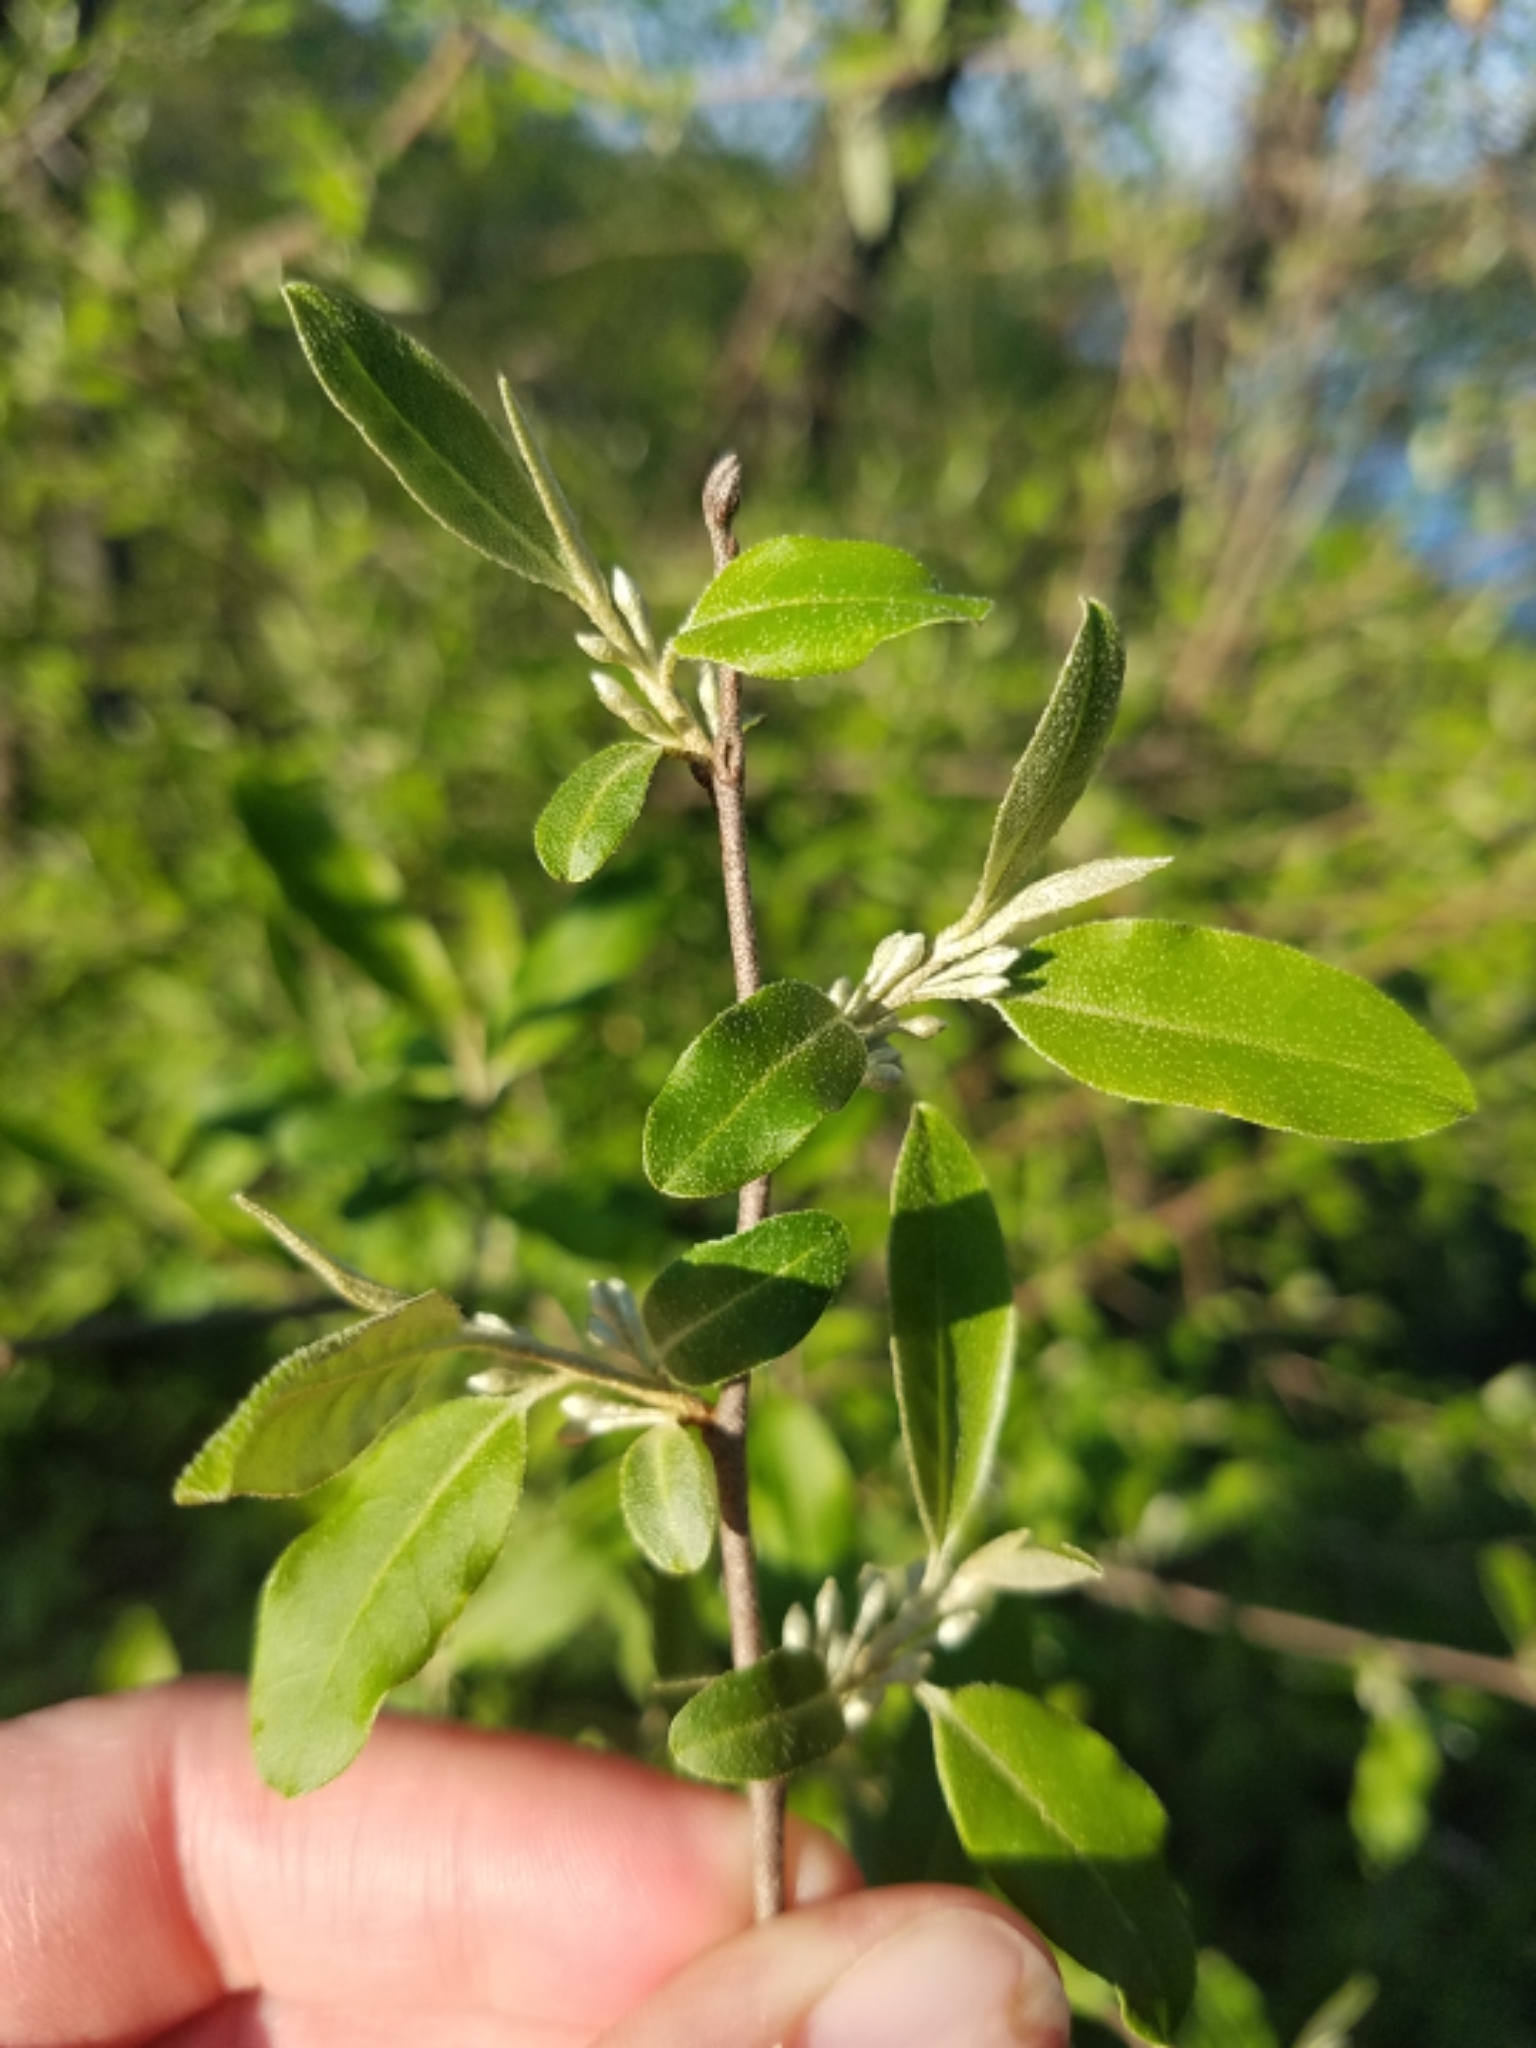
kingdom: Plantae
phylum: Tracheophyta
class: Magnoliopsida
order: Rosales
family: Elaeagnaceae
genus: Elaeagnus
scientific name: Elaeagnus umbellata
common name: Autumn olive
